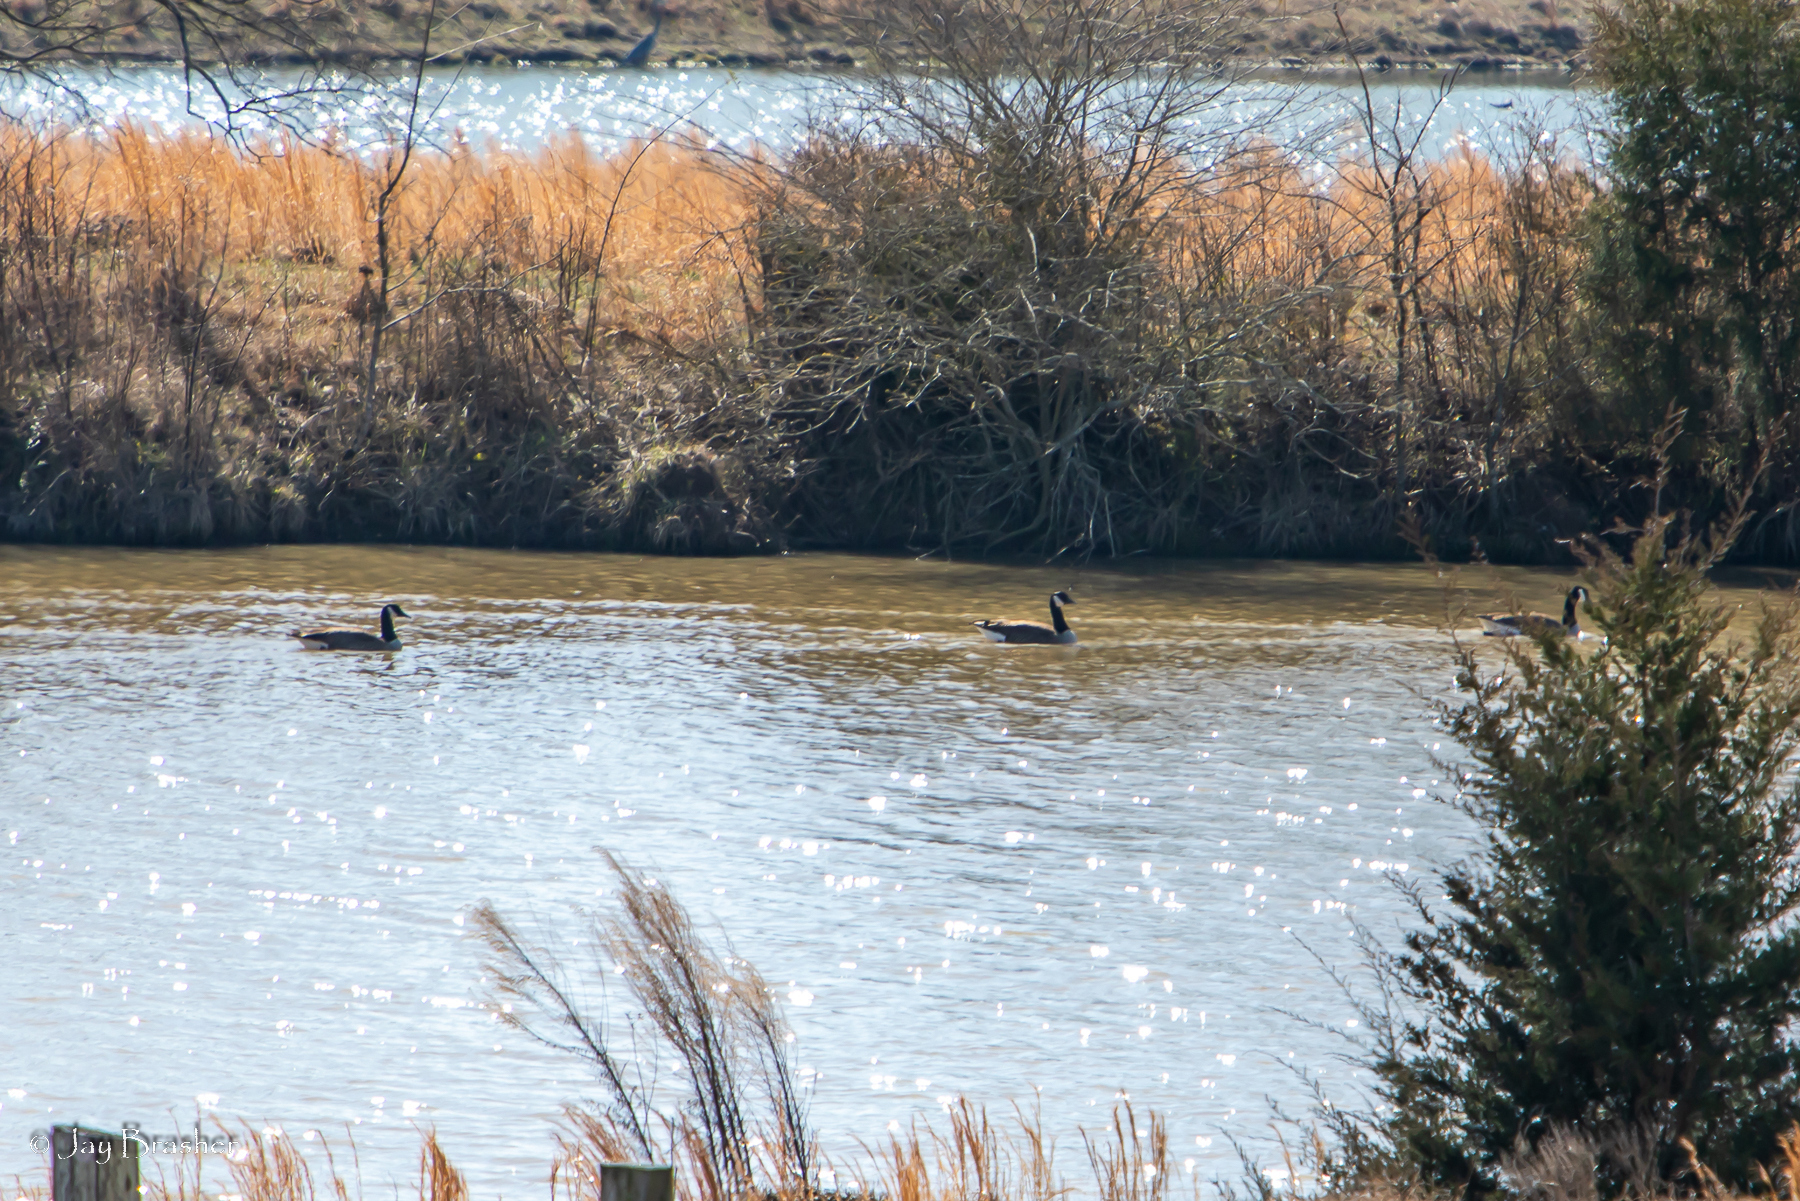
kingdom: Animalia
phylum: Chordata
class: Aves
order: Anseriformes
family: Anatidae
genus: Branta
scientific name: Branta canadensis
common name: Canada goose
